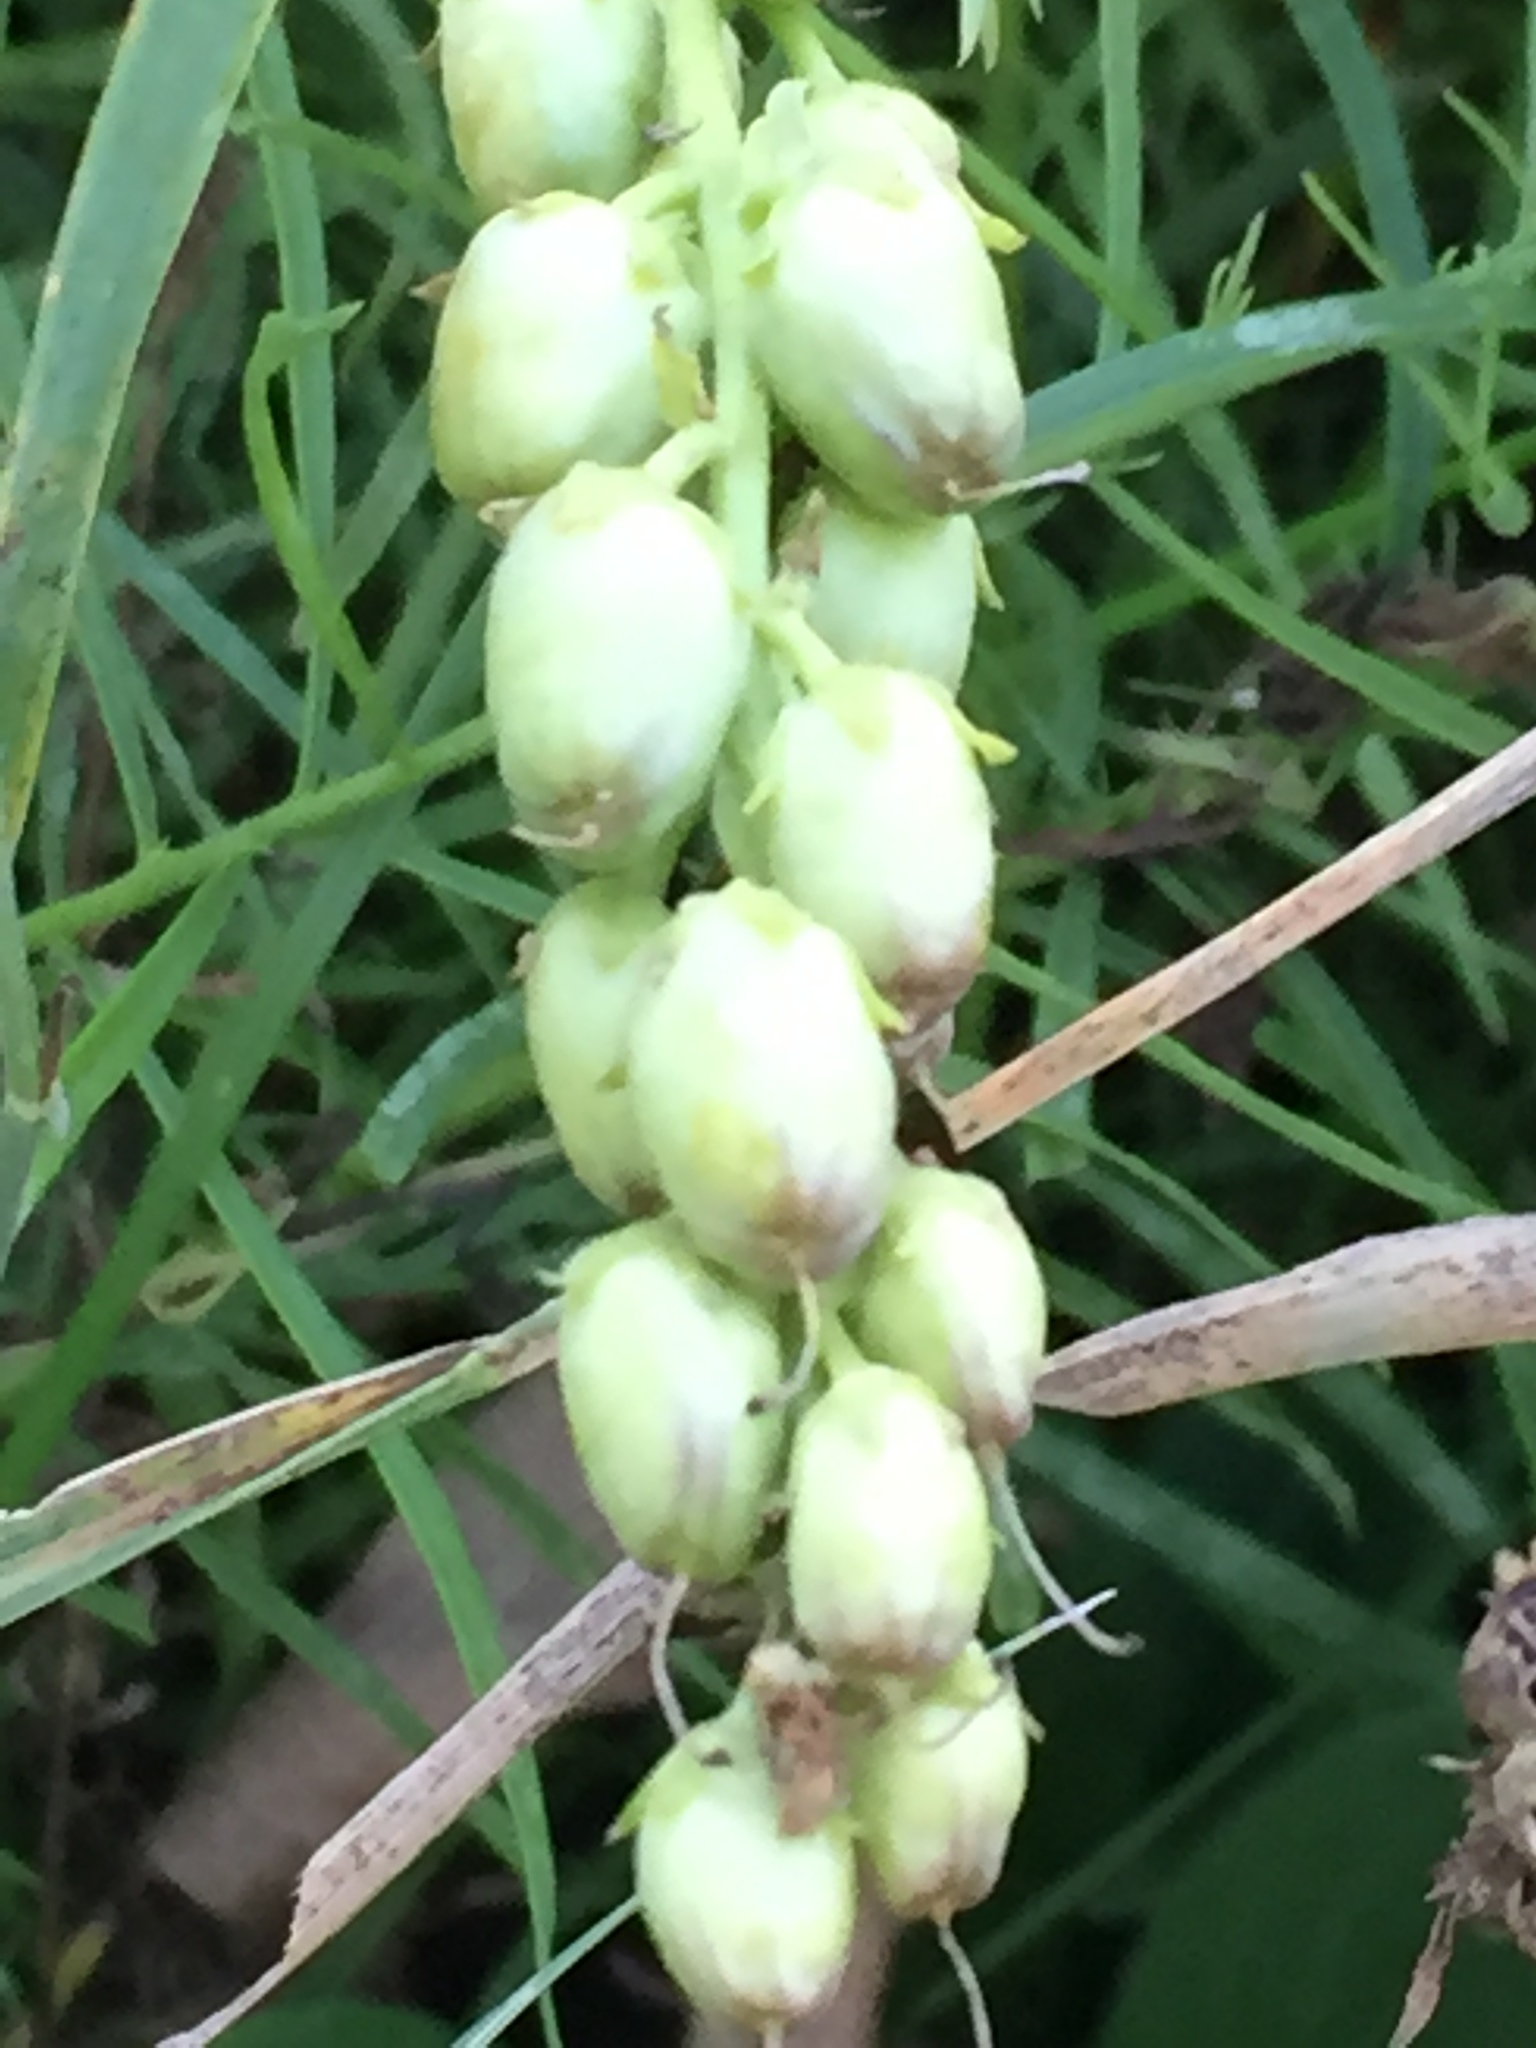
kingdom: Plantae
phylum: Tracheophyta
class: Magnoliopsida
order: Lamiales
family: Plantaginaceae
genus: Linaria
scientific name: Linaria vulgaris
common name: Butter and eggs
